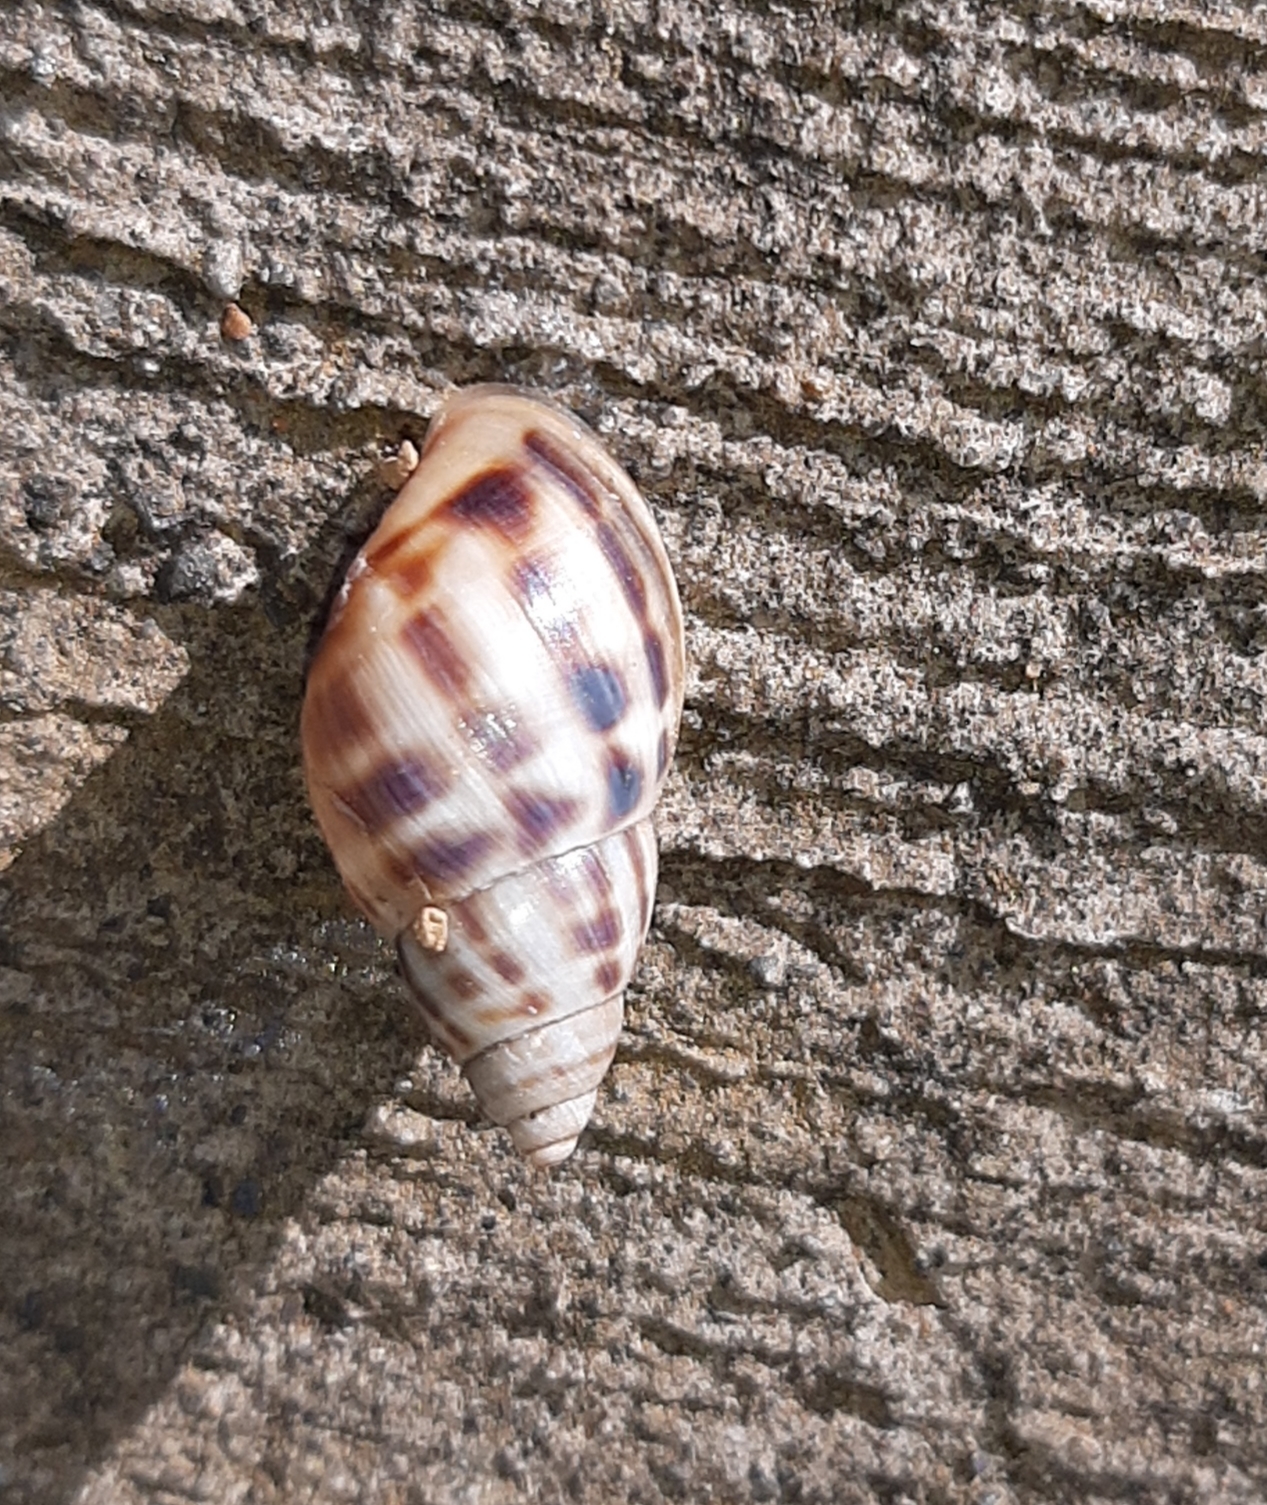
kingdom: Animalia
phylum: Mollusca
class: Gastropoda
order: Stylommatophora
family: Bulimulidae
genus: Drymaeus
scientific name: Drymaeus serperastrum
